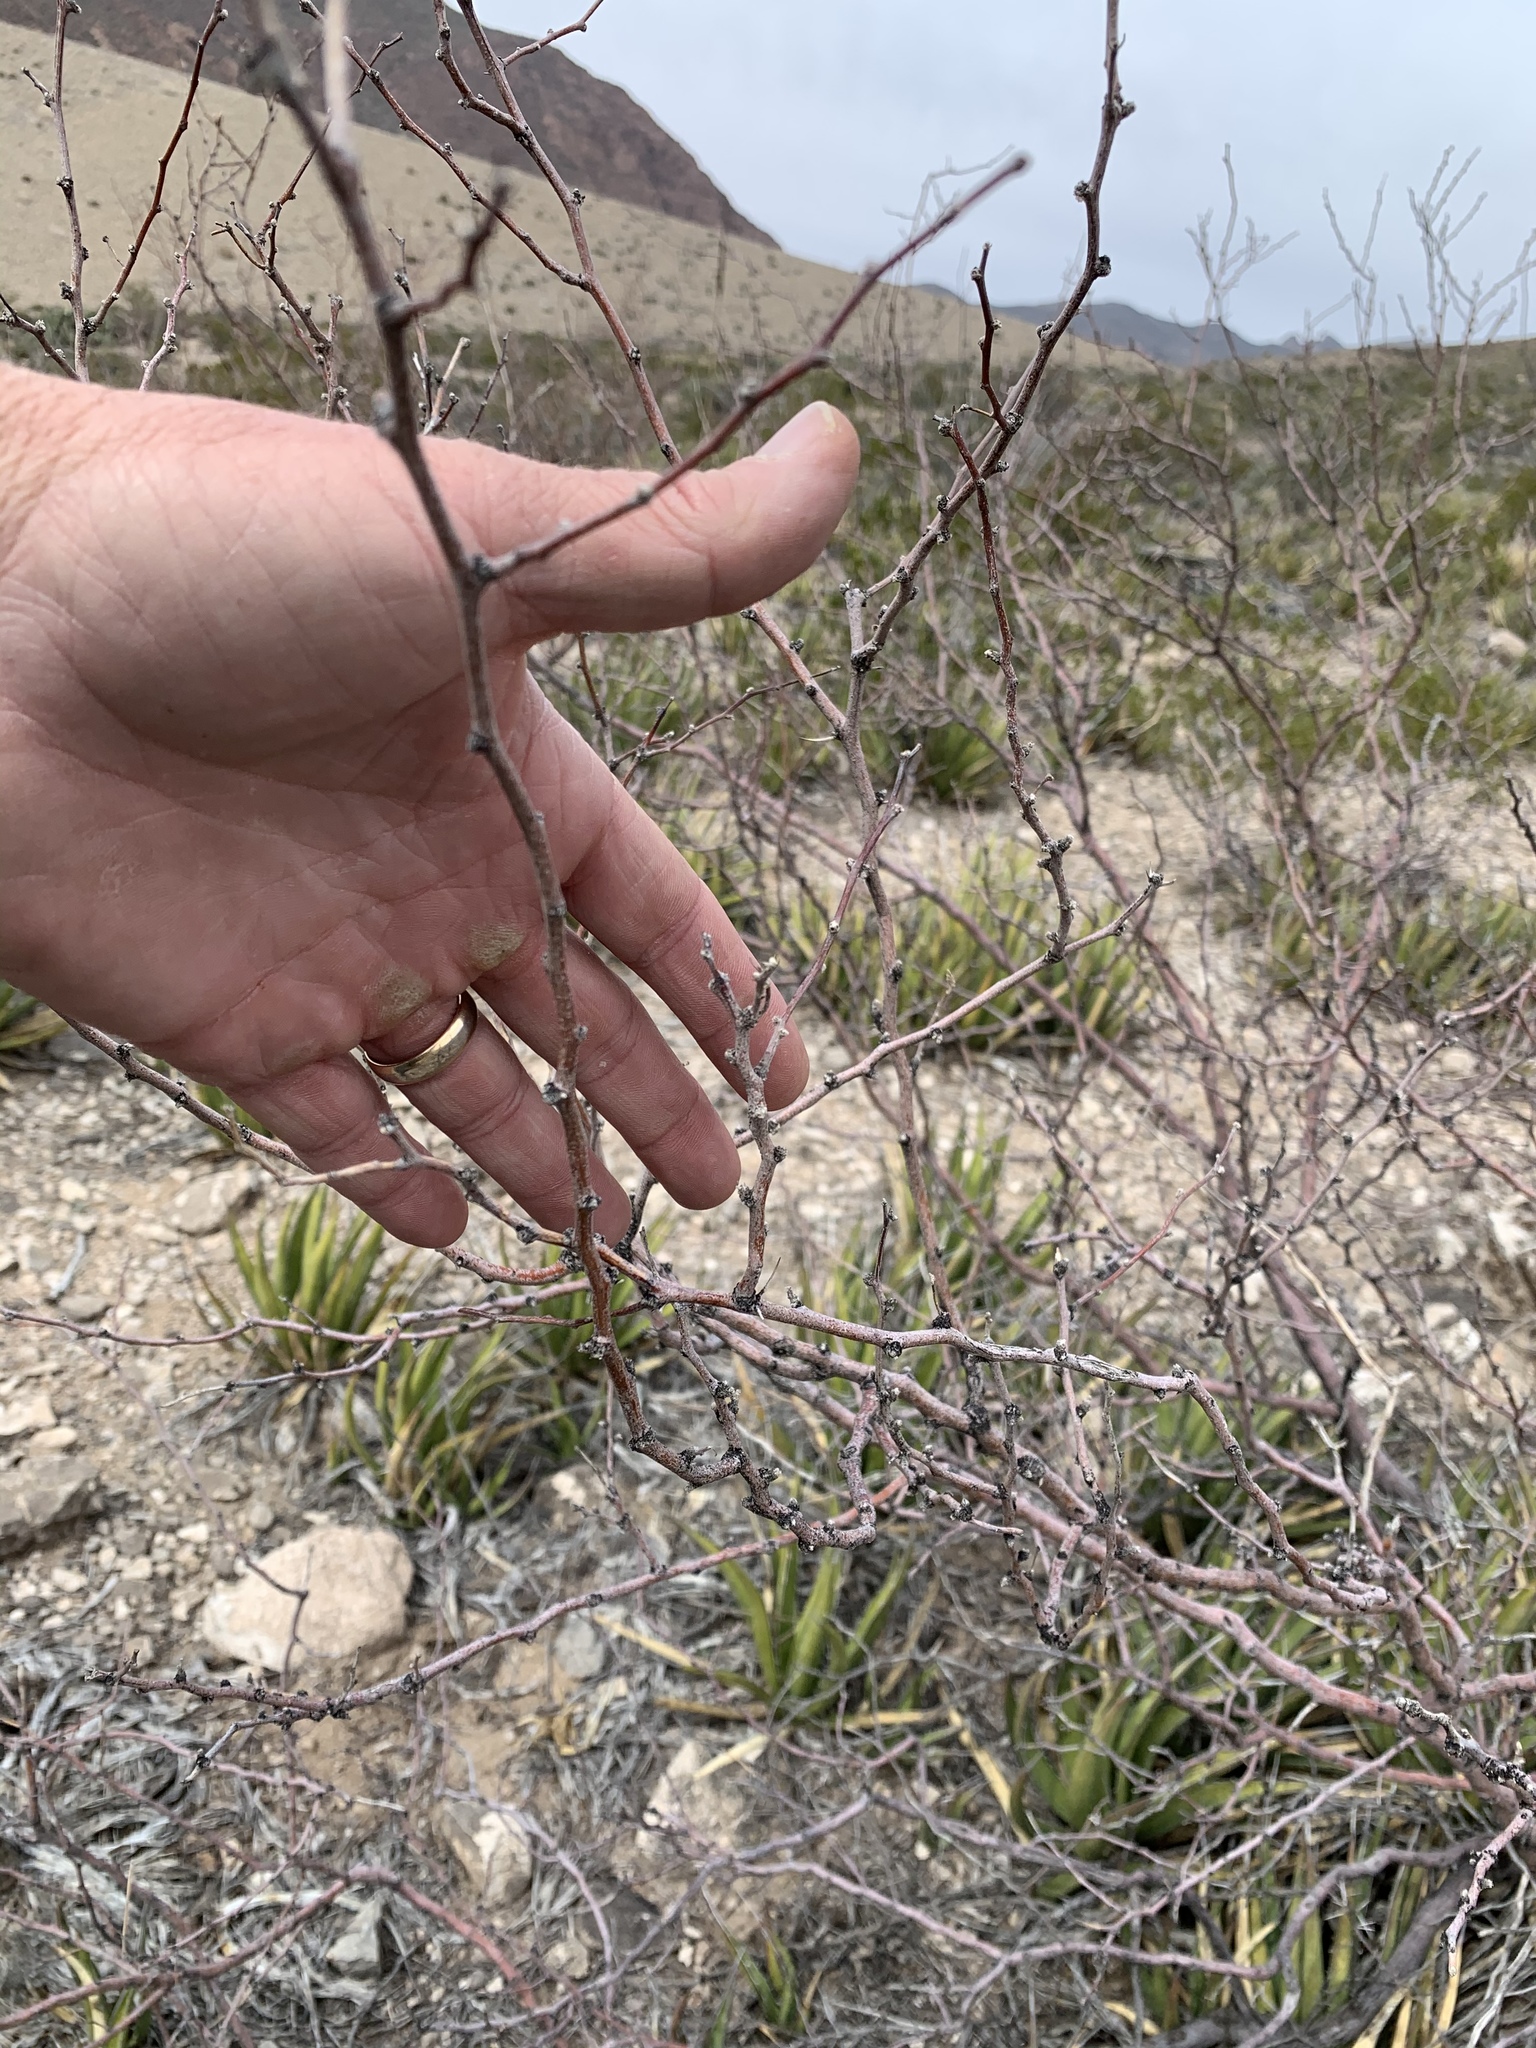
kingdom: Plantae
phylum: Tracheophyta
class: Magnoliopsida
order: Fabales
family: Fabaceae
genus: Vachellia
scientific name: Vachellia constricta
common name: Mescat acacia
